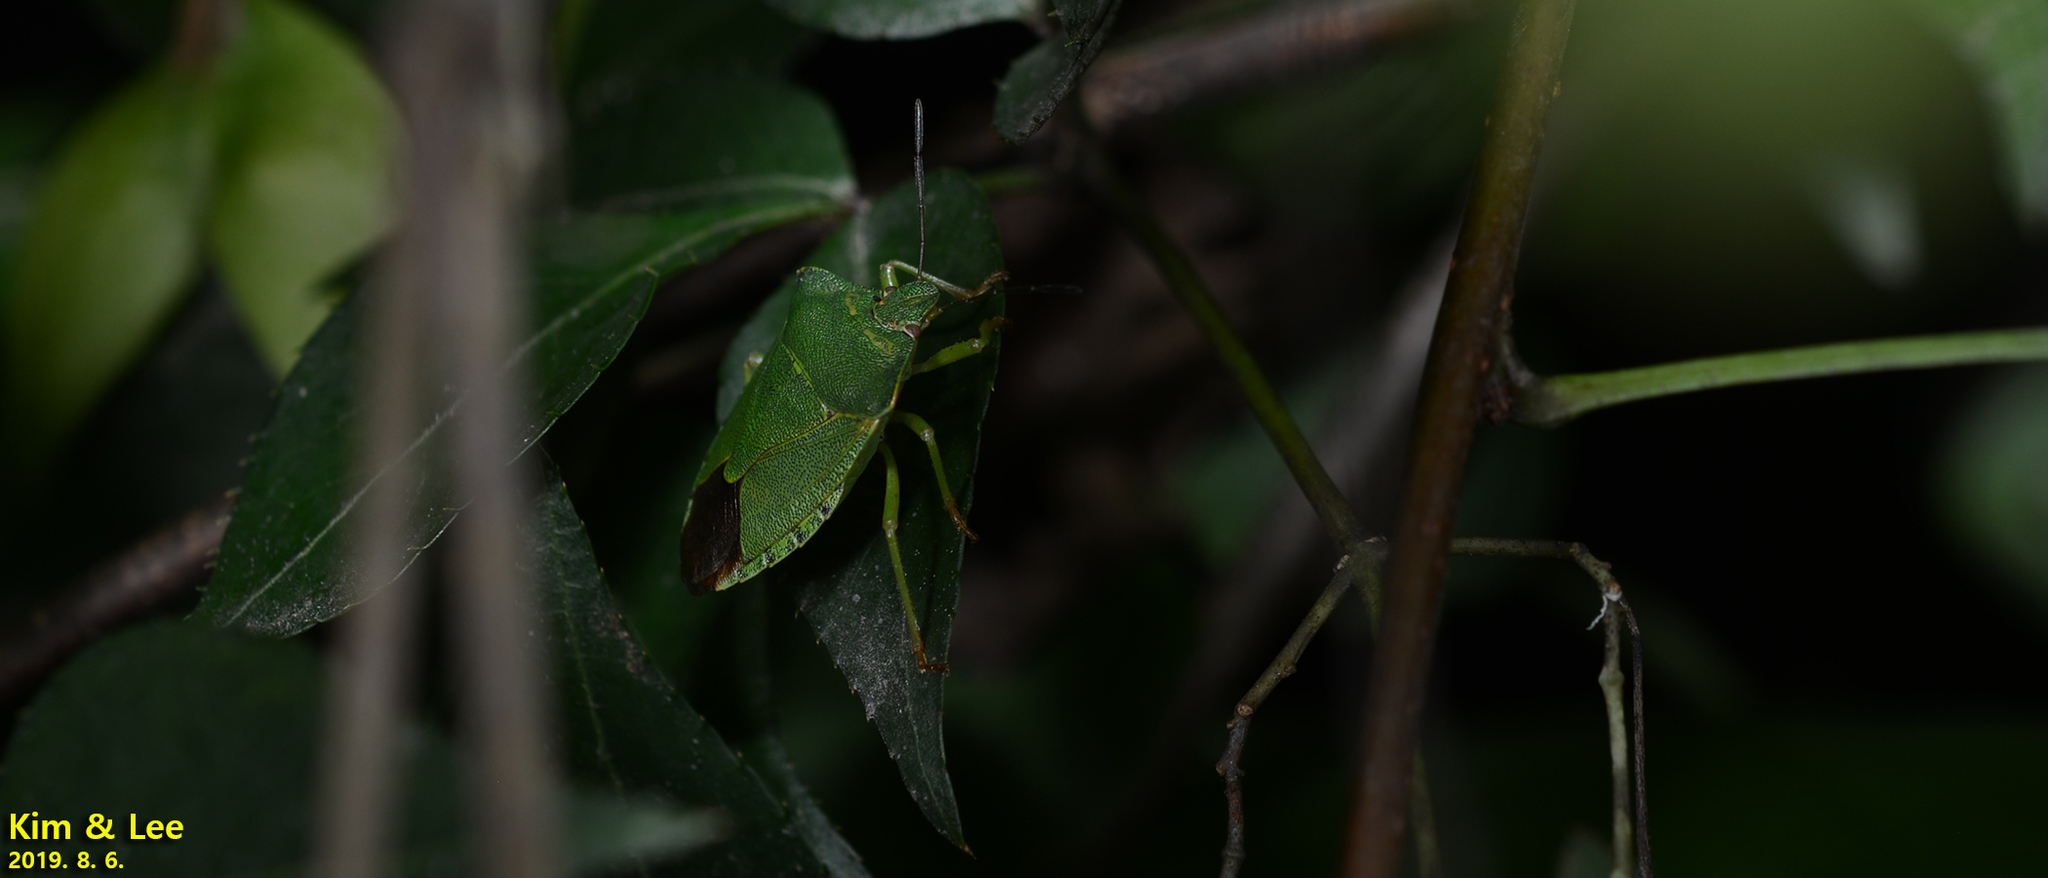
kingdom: Animalia
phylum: Arthropoda
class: Insecta
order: Hemiptera
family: Pentatomidae
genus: Palomena
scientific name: Palomena
